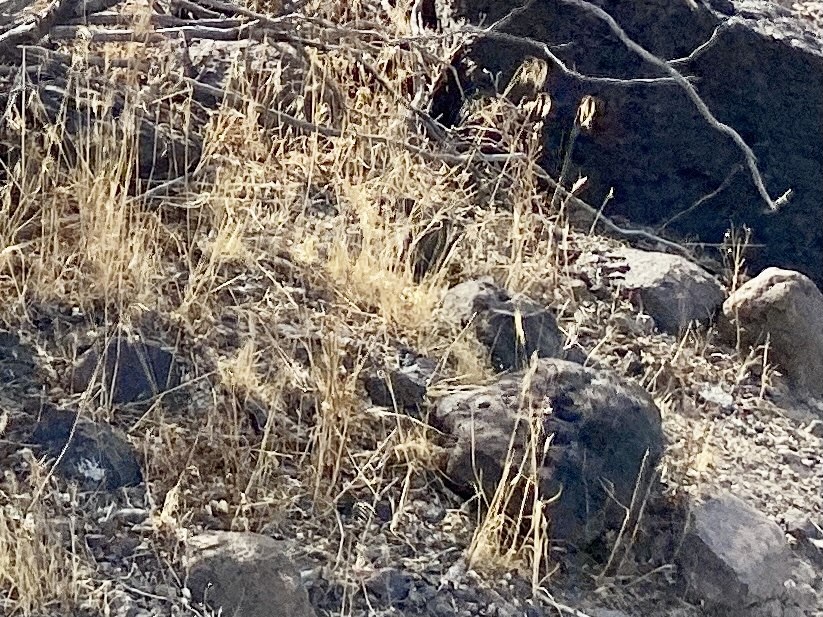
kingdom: Plantae
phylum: Tracheophyta
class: Liliopsida
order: Poales
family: Poaceae
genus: Bromus
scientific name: Bromus tectorum
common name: Cheatgrass
